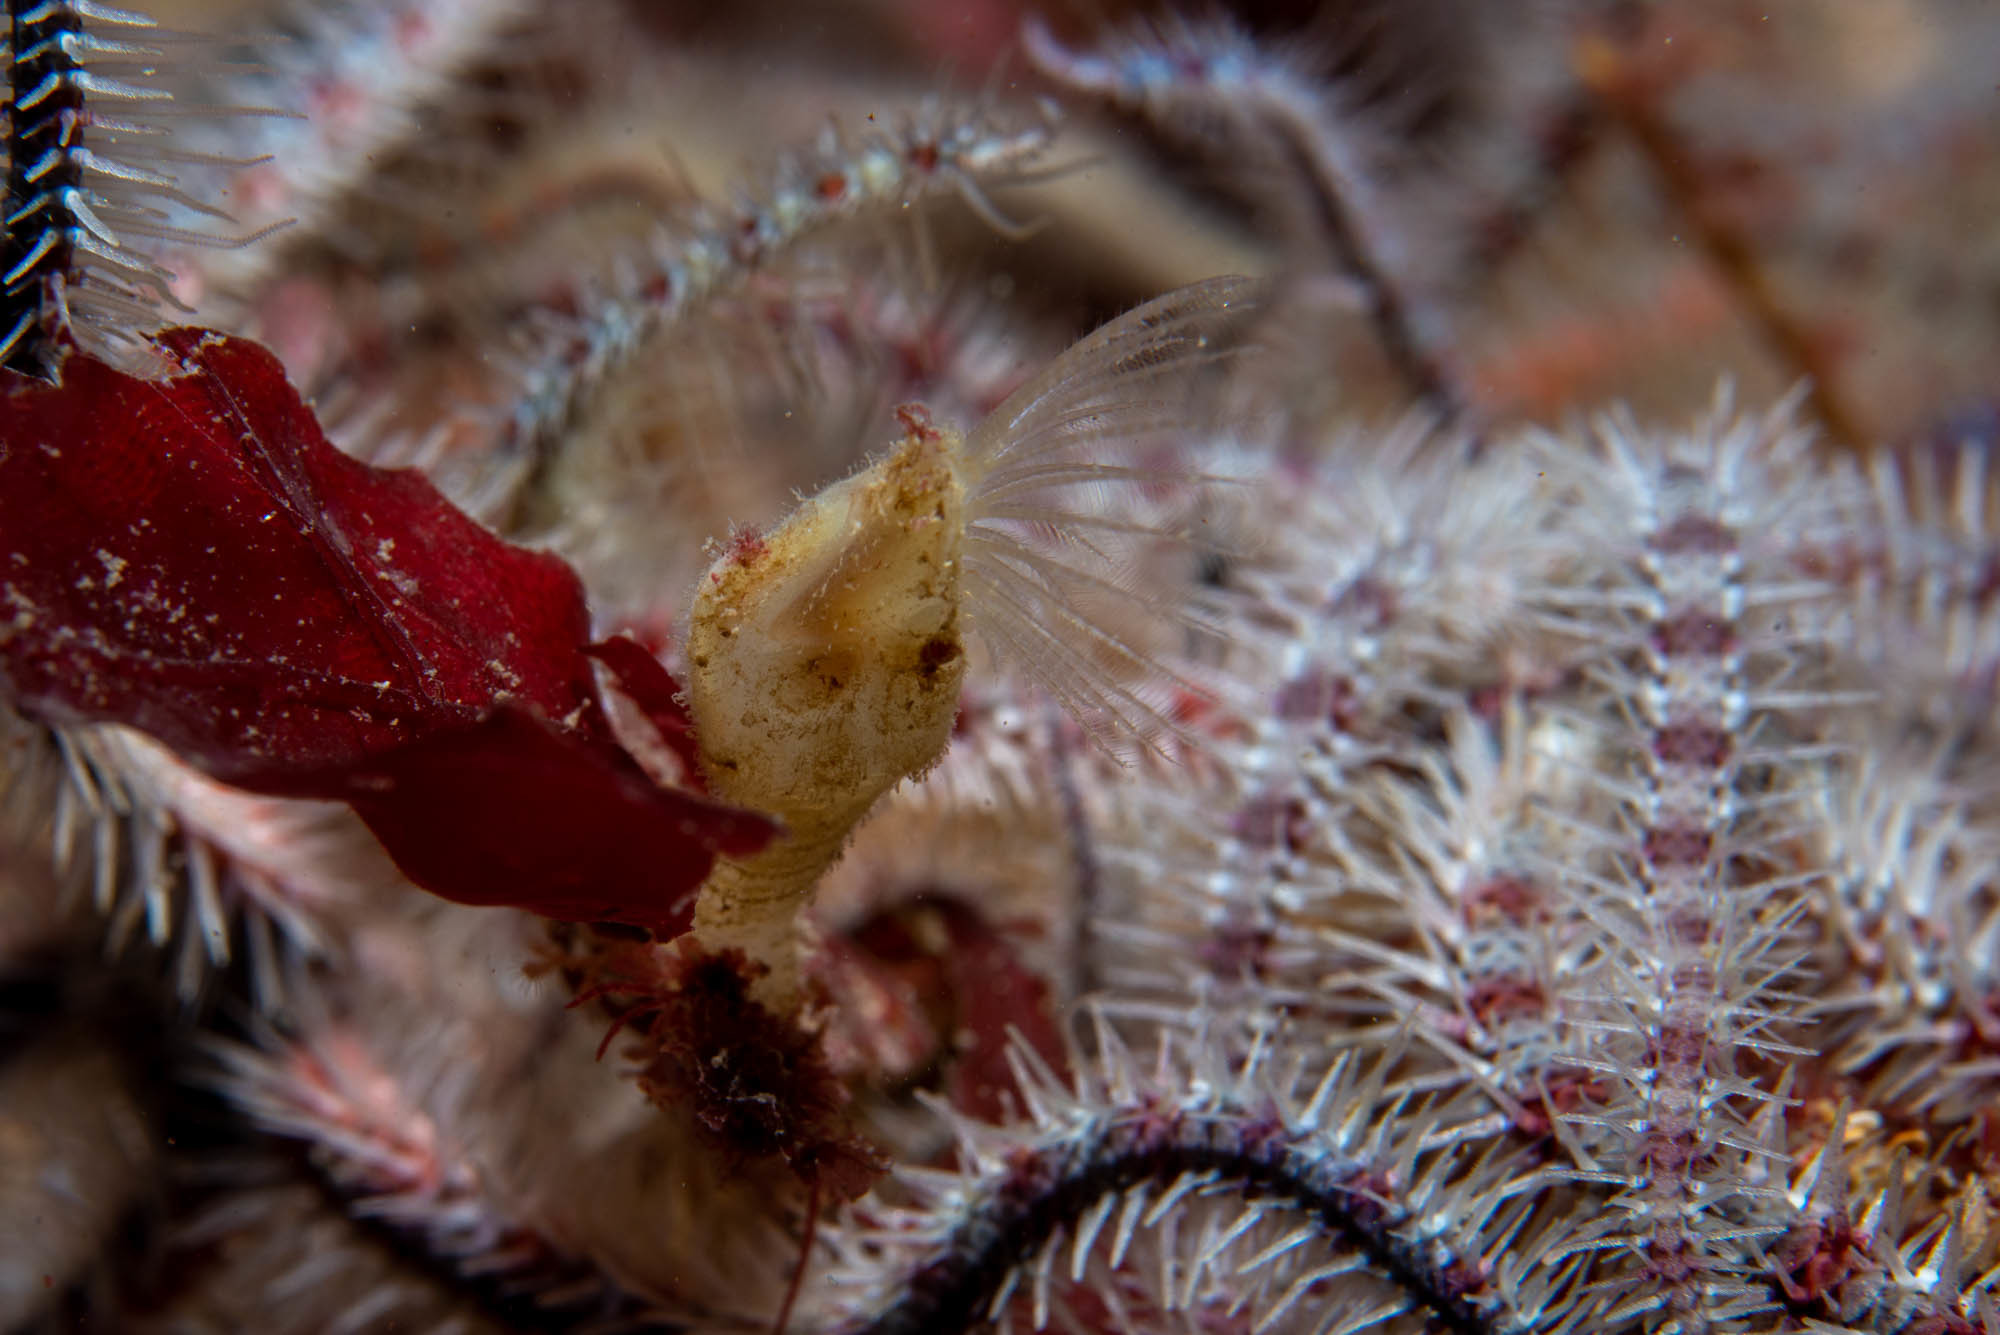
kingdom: Animalia
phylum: Arthropoda
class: Maxillopoda
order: Pedunculata
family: Scalpellidae
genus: Scalpellum
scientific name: Scalpellum scalpellum
